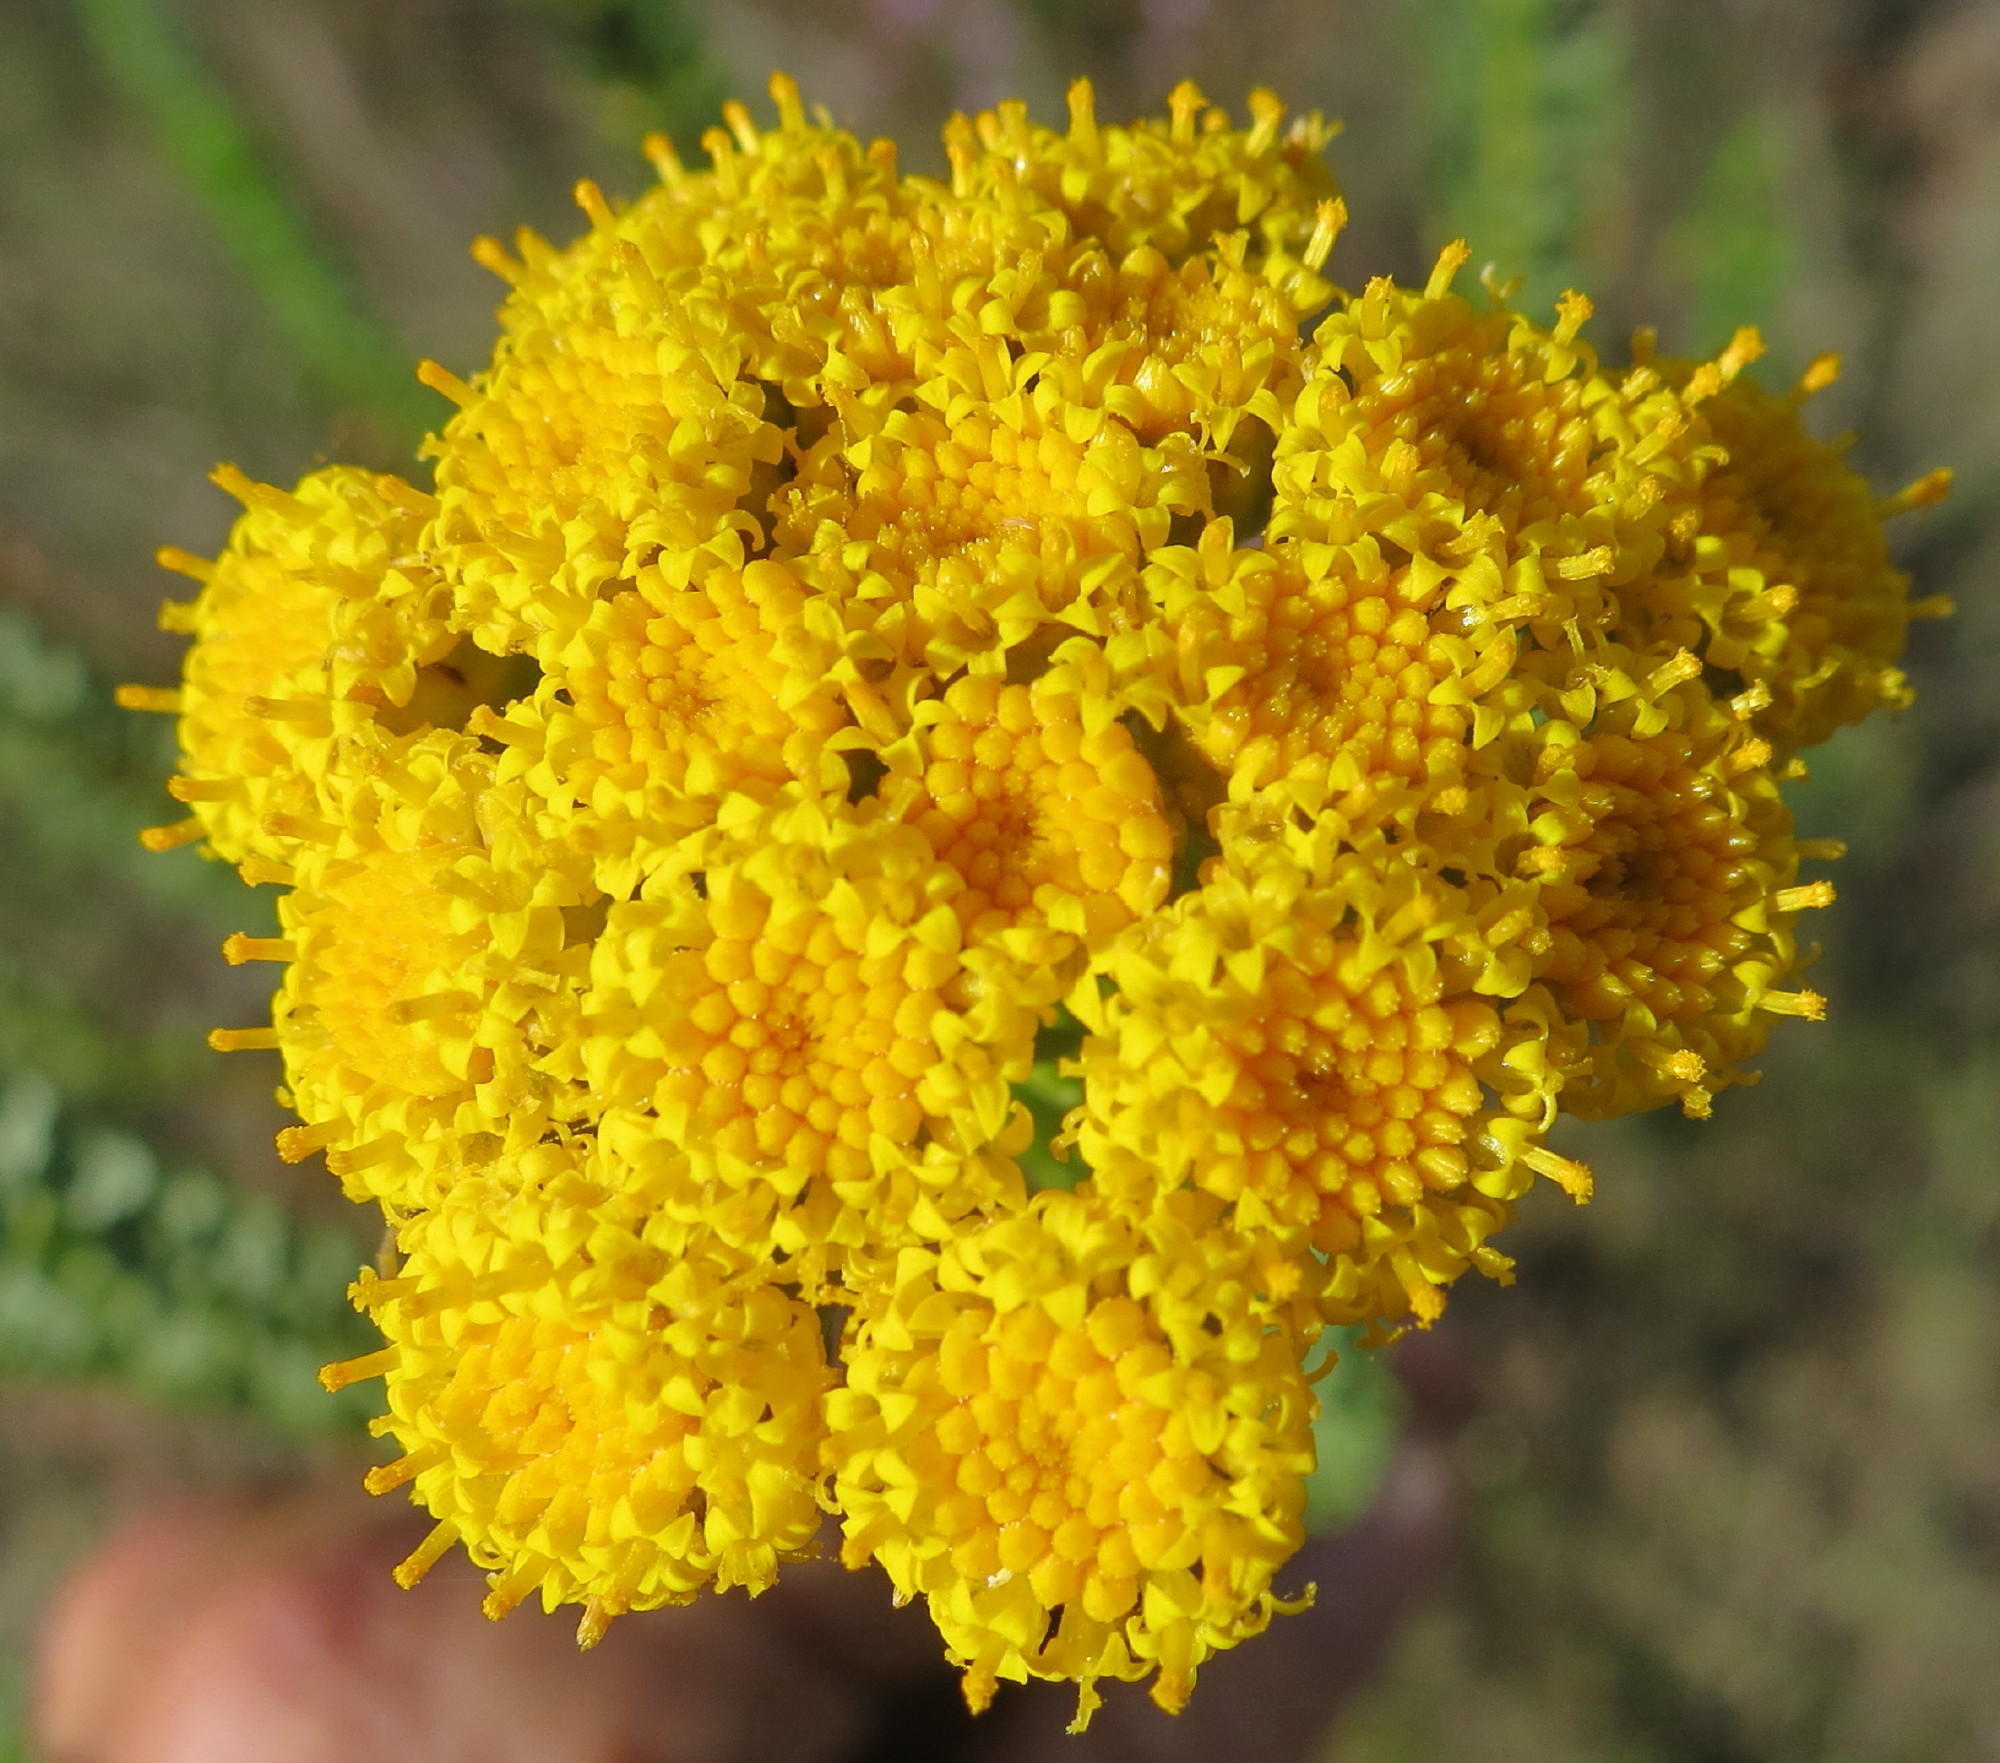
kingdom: Plantae
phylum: Tracheophyta
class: Magnoliopsida
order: Asterales
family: Asteraceae
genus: Athanasia
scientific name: Athanasia trifurcata
